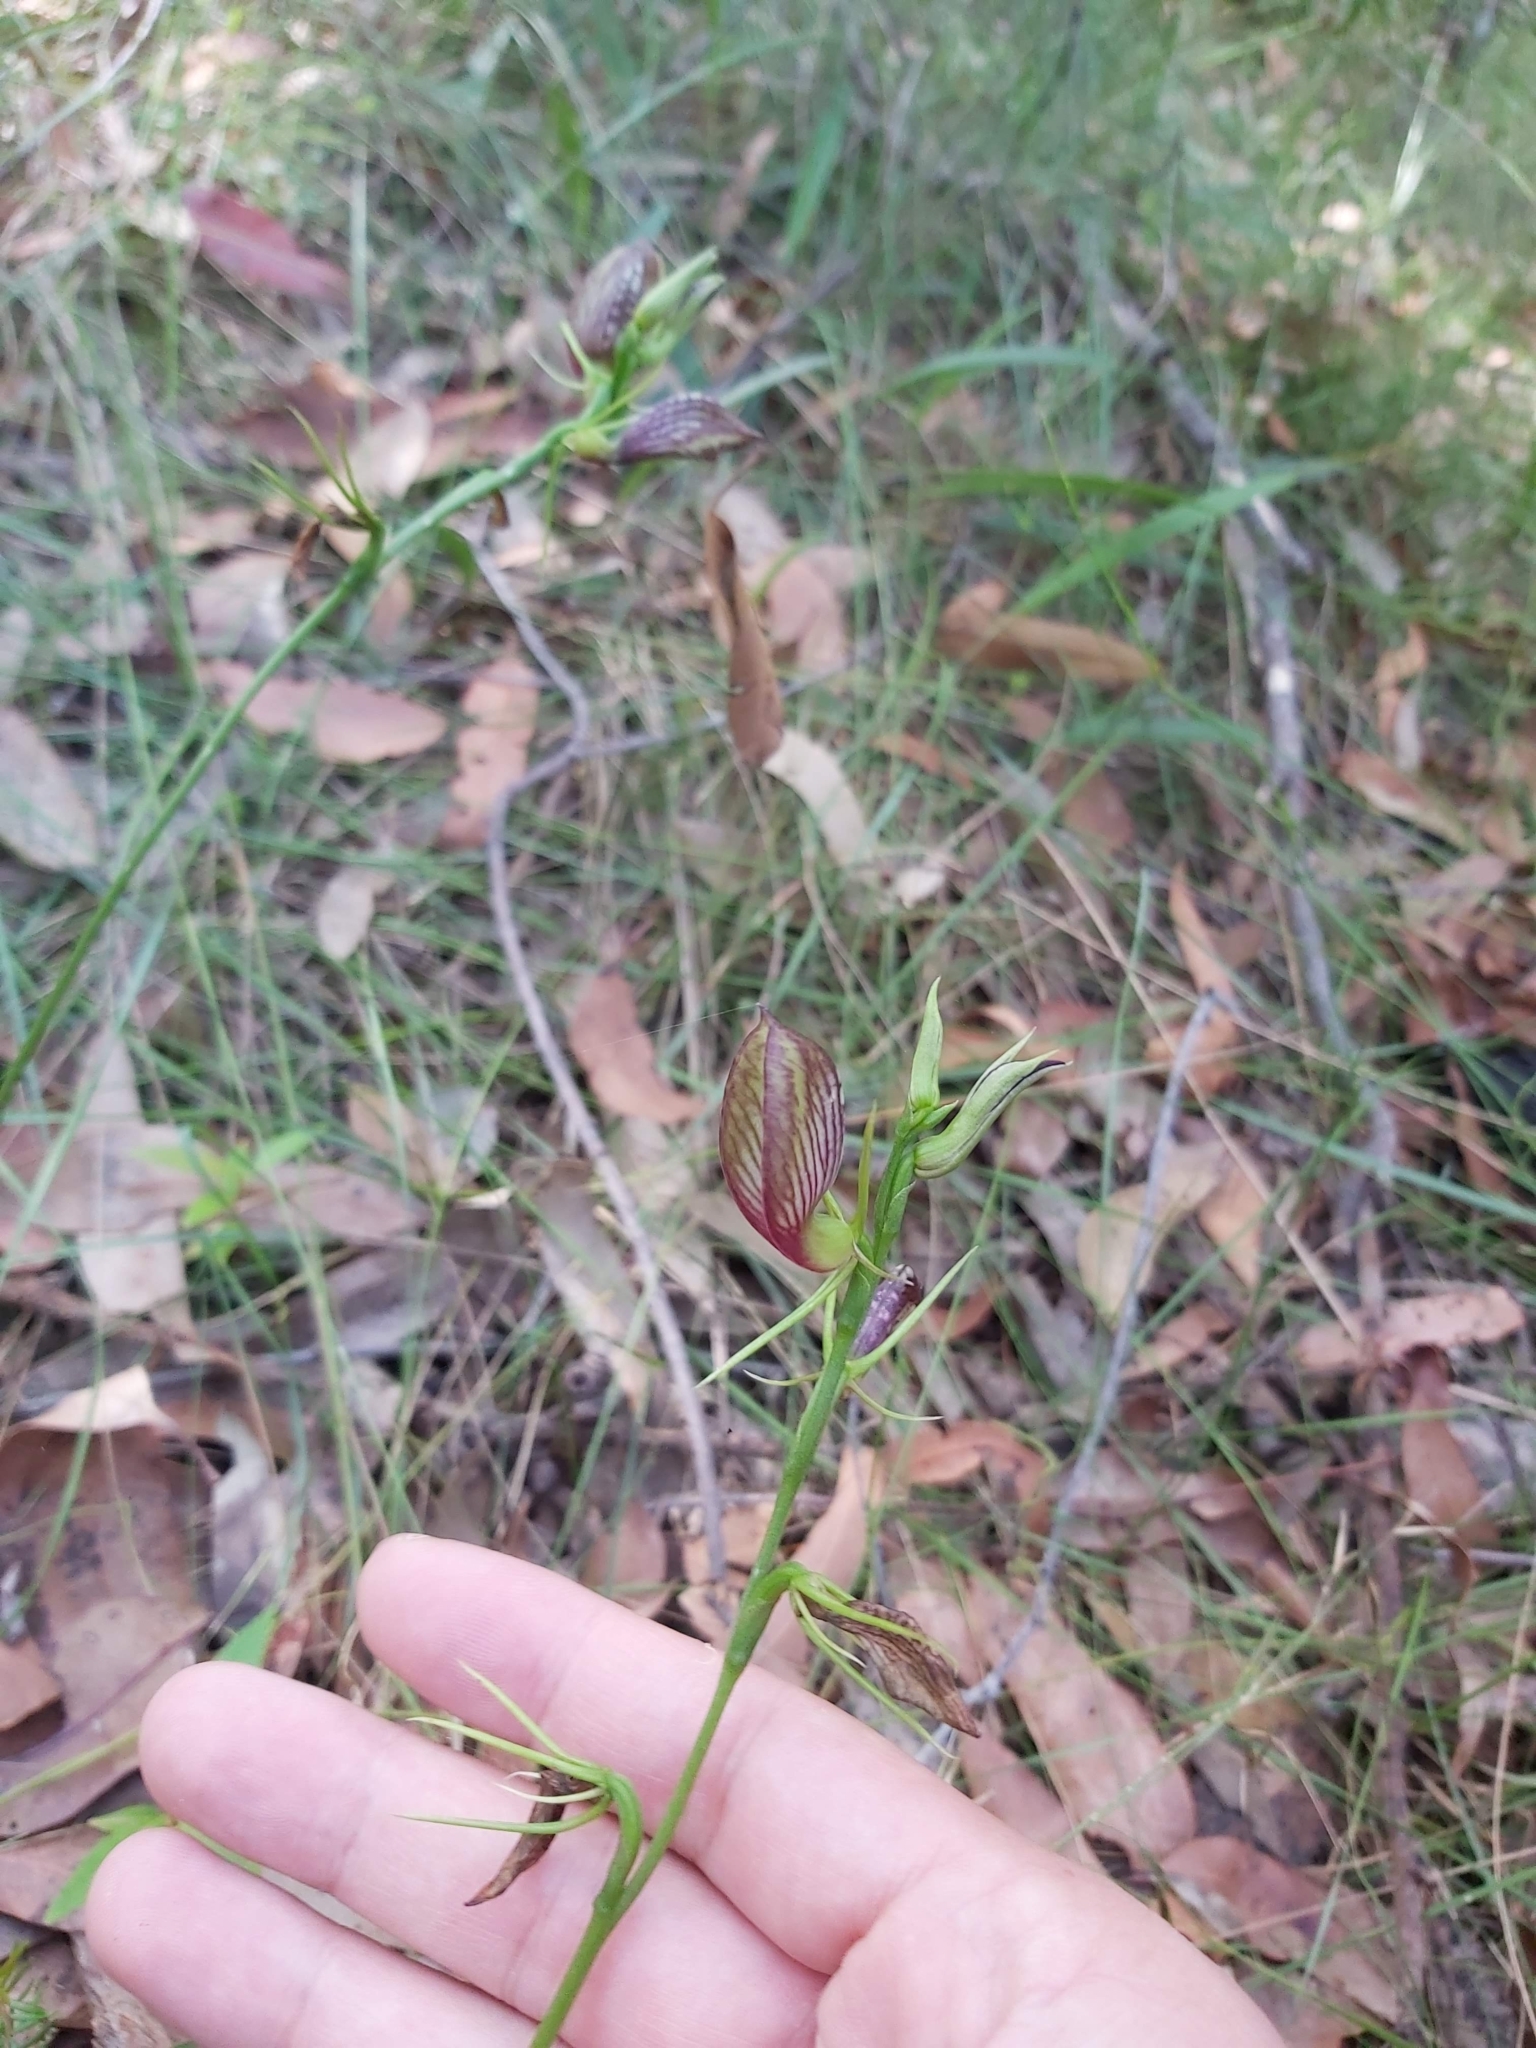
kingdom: Plantae
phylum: Tracheophyta
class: Liliopsida
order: Asparagales
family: Orchidaceae
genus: Cryptostylis
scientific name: Cryptostylis erecta
